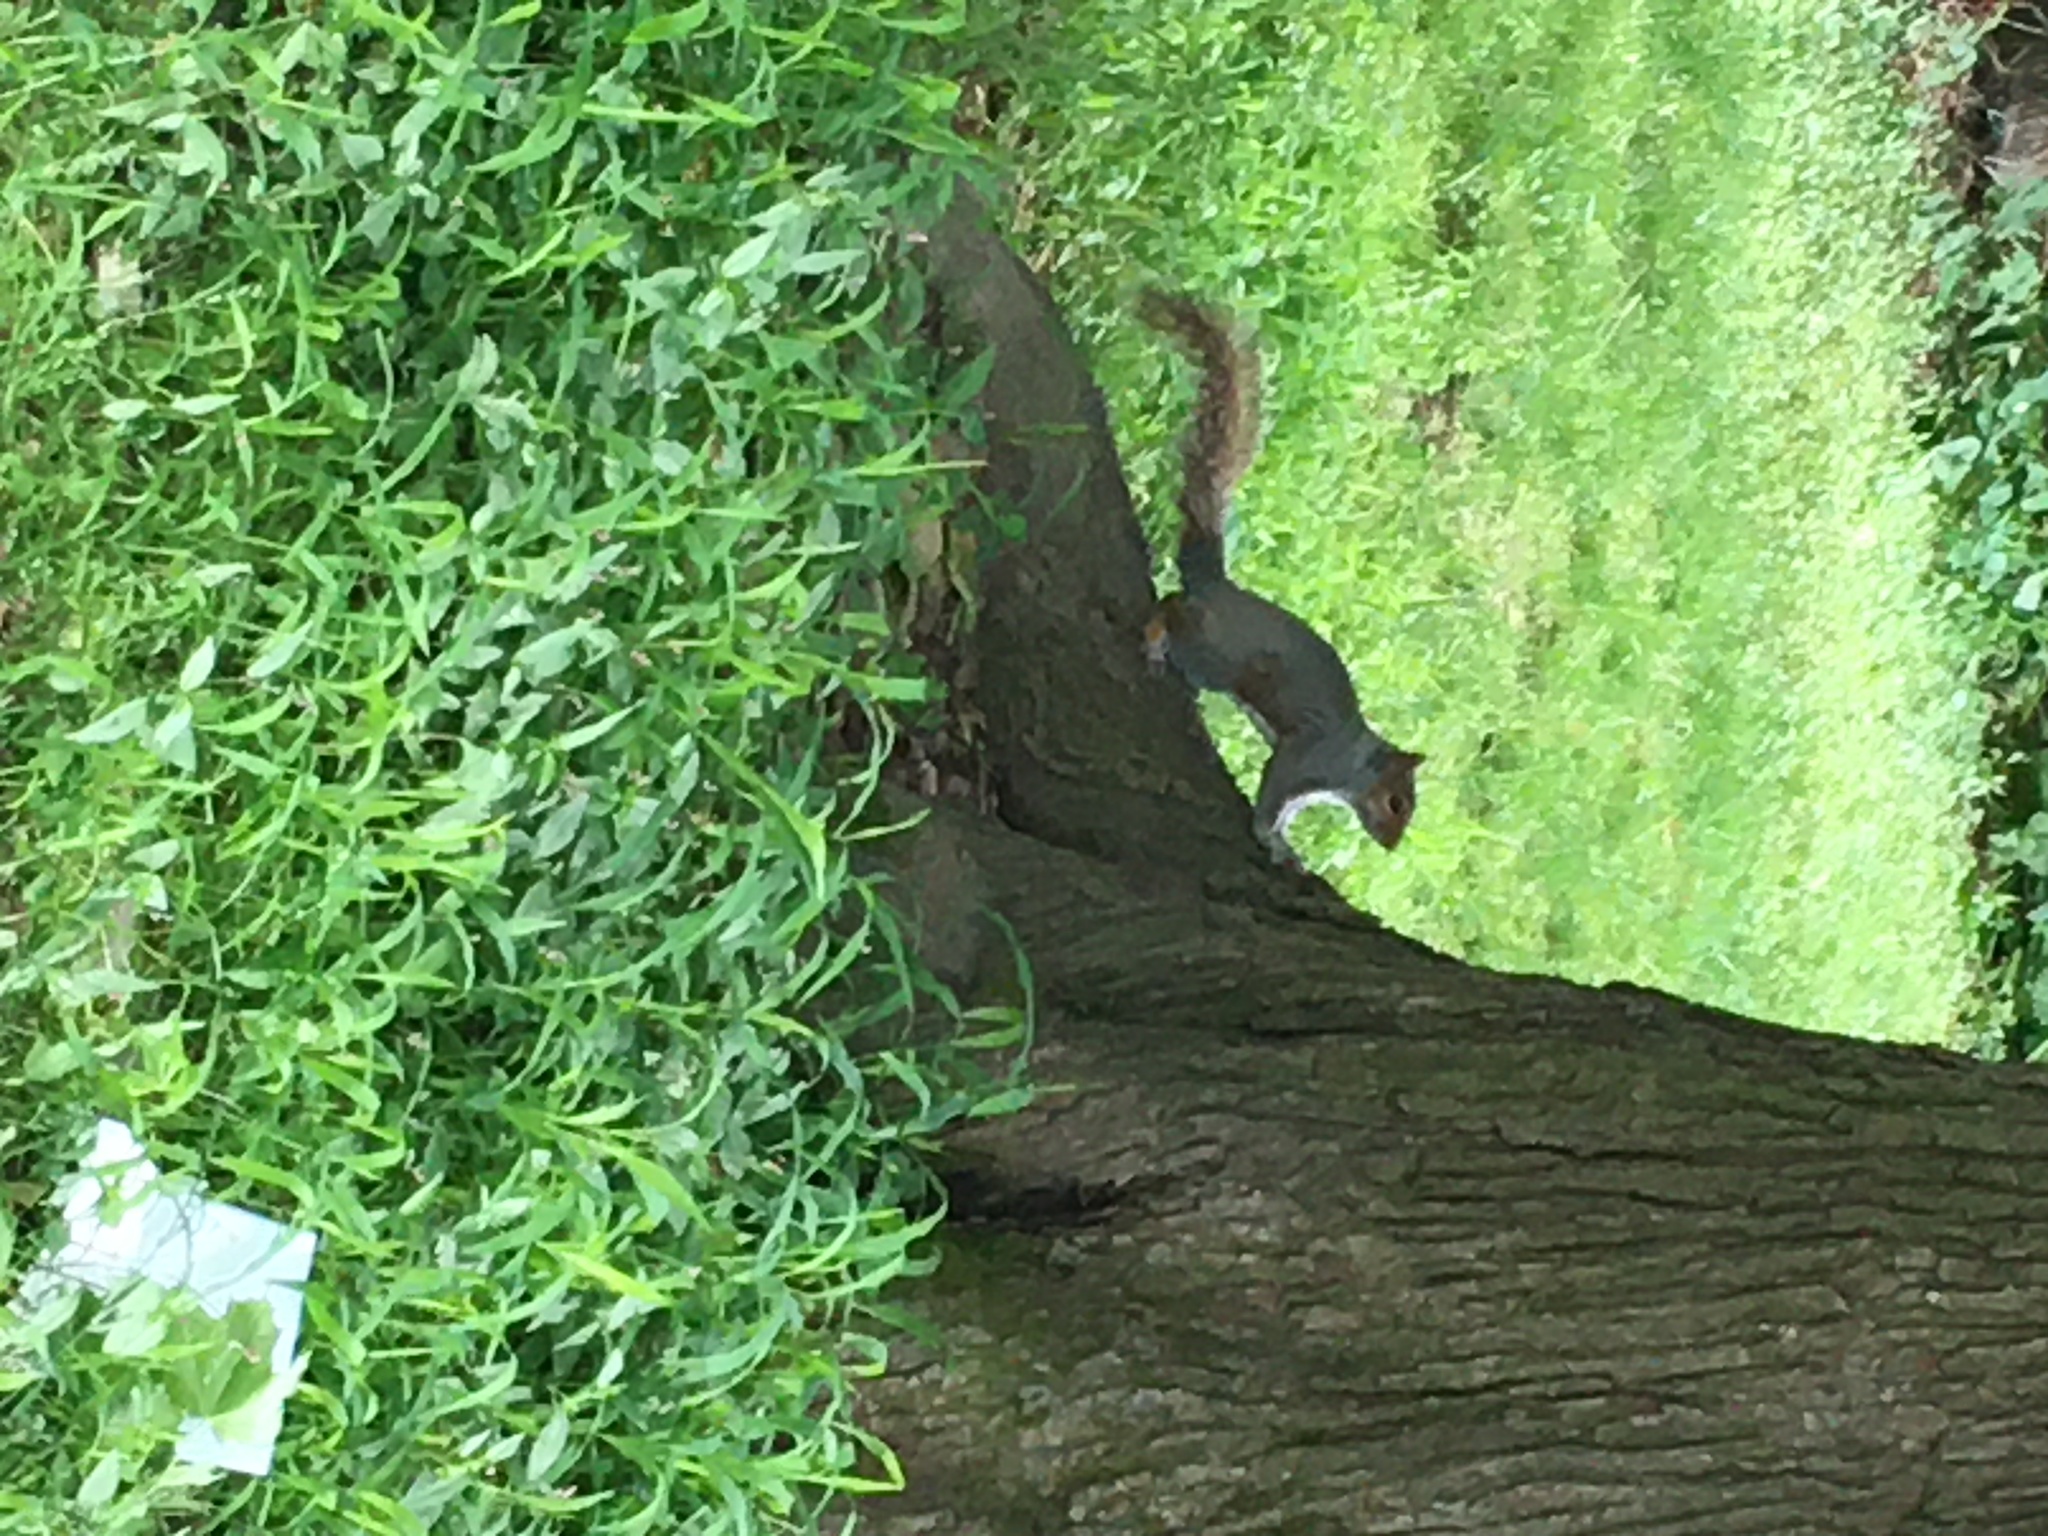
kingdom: Animalia
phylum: Chordata
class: Mammalia
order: Rodentia
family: Sciuridae
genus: Sciurus
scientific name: Sciurus carolinensis
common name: Eastern gray squirrel
